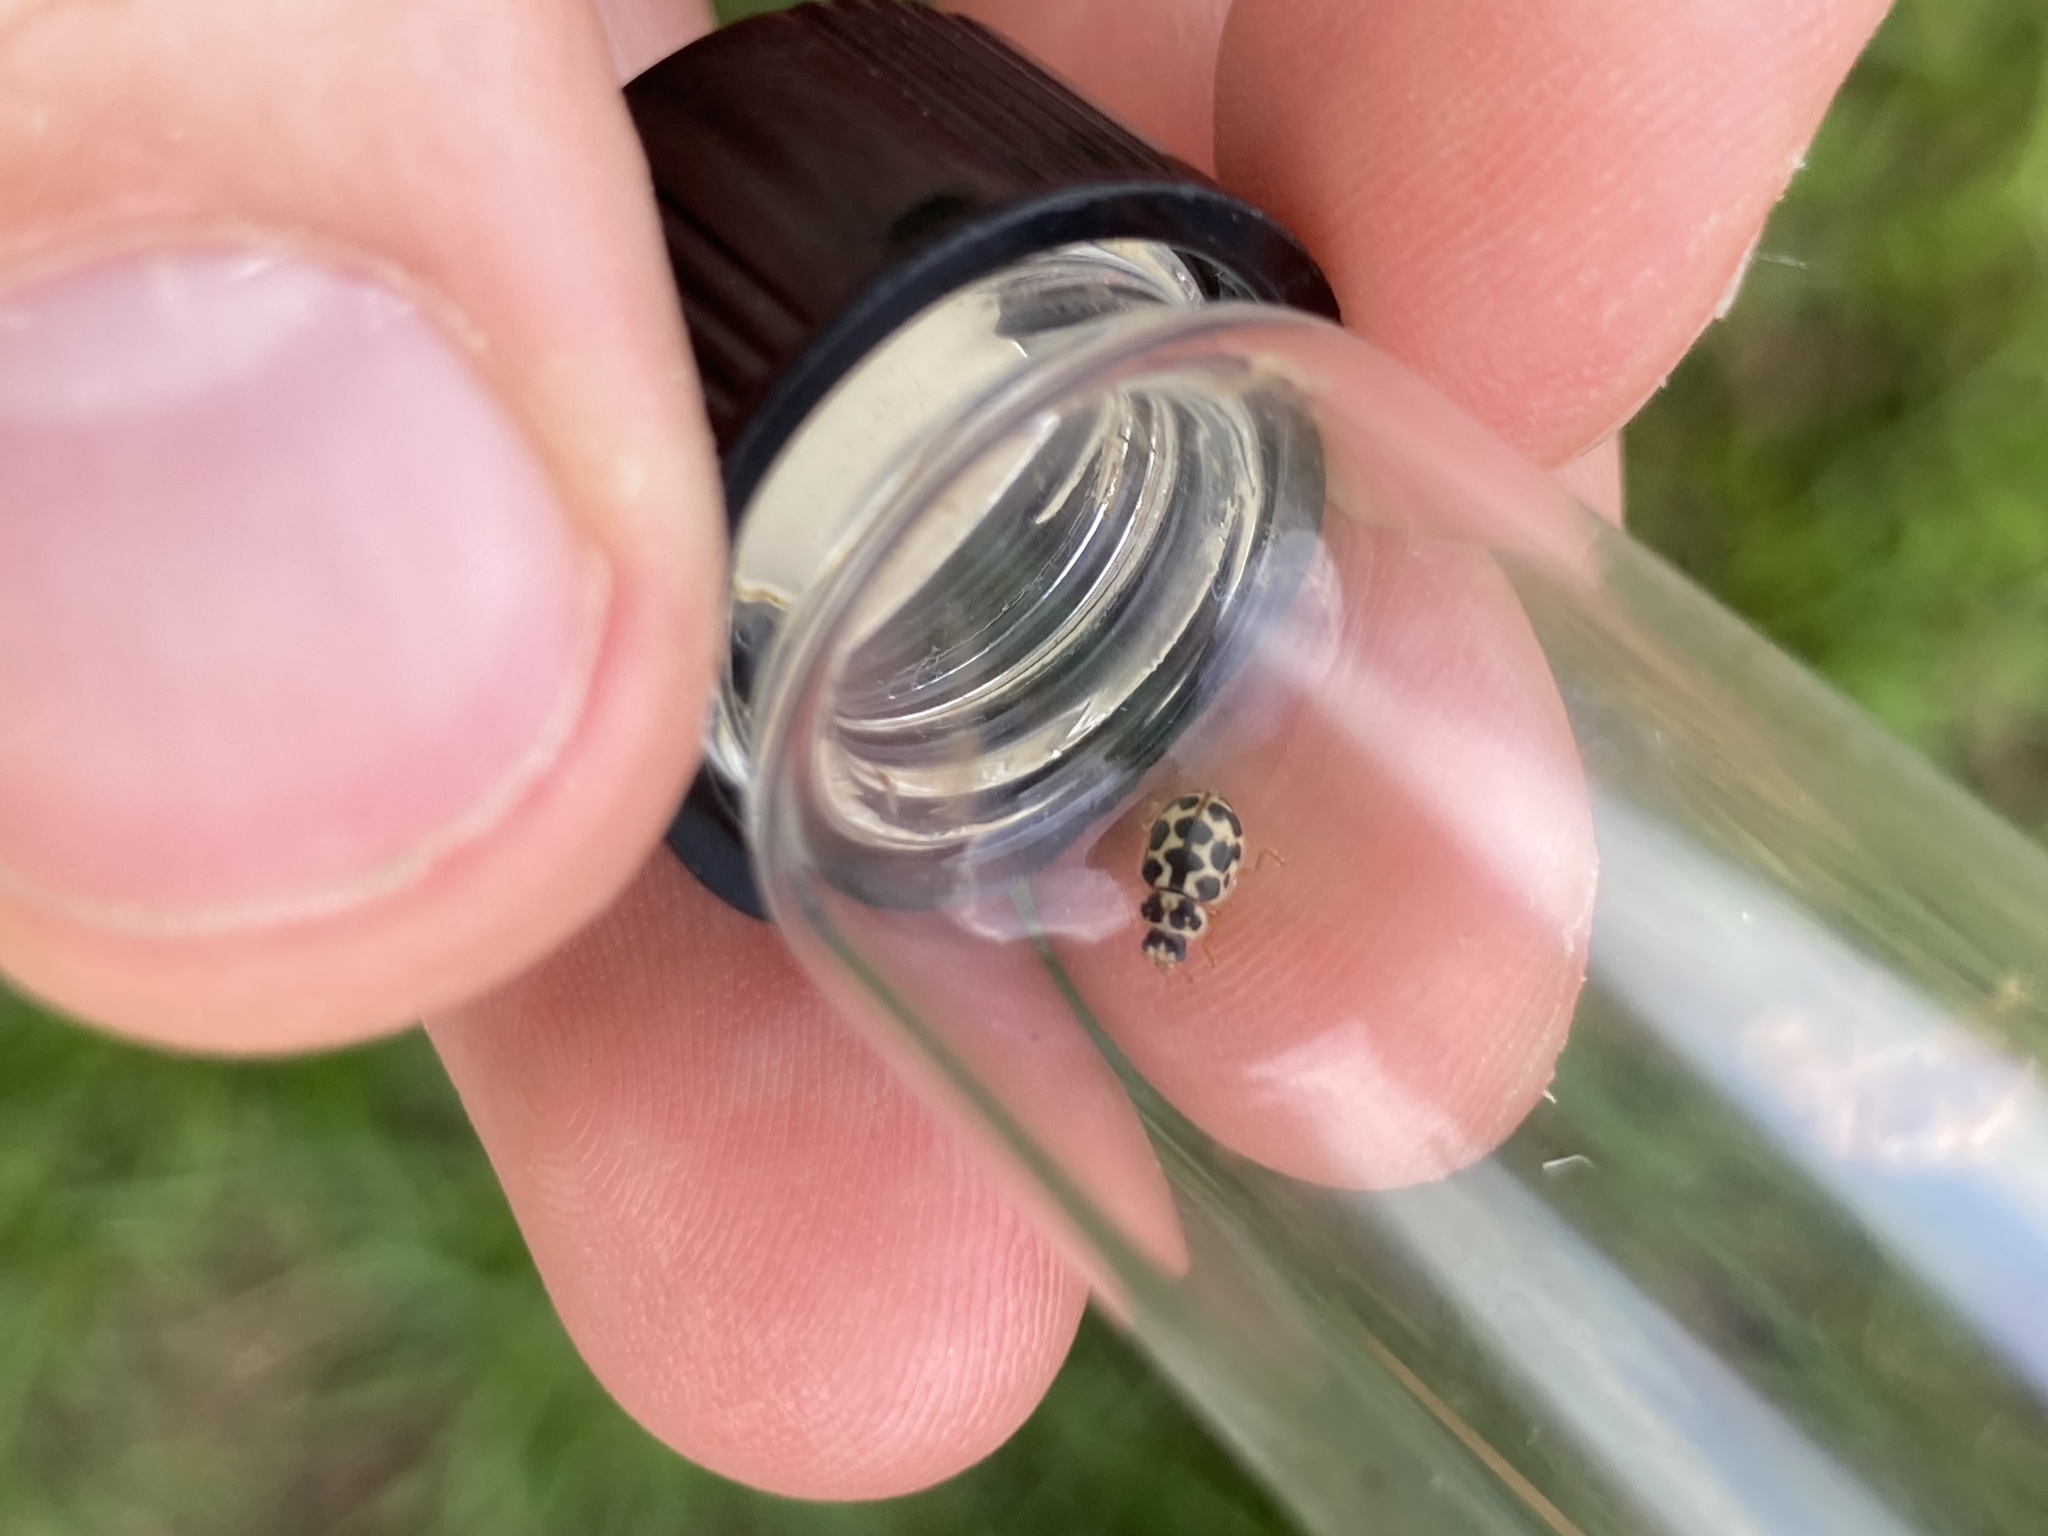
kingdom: Animalia
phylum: Arthropoda
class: Insecta
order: Coleoptera
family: Coccinellidae
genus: Anisosticta
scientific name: Anisosticta bitriangularis
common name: Marsh lady beetle
